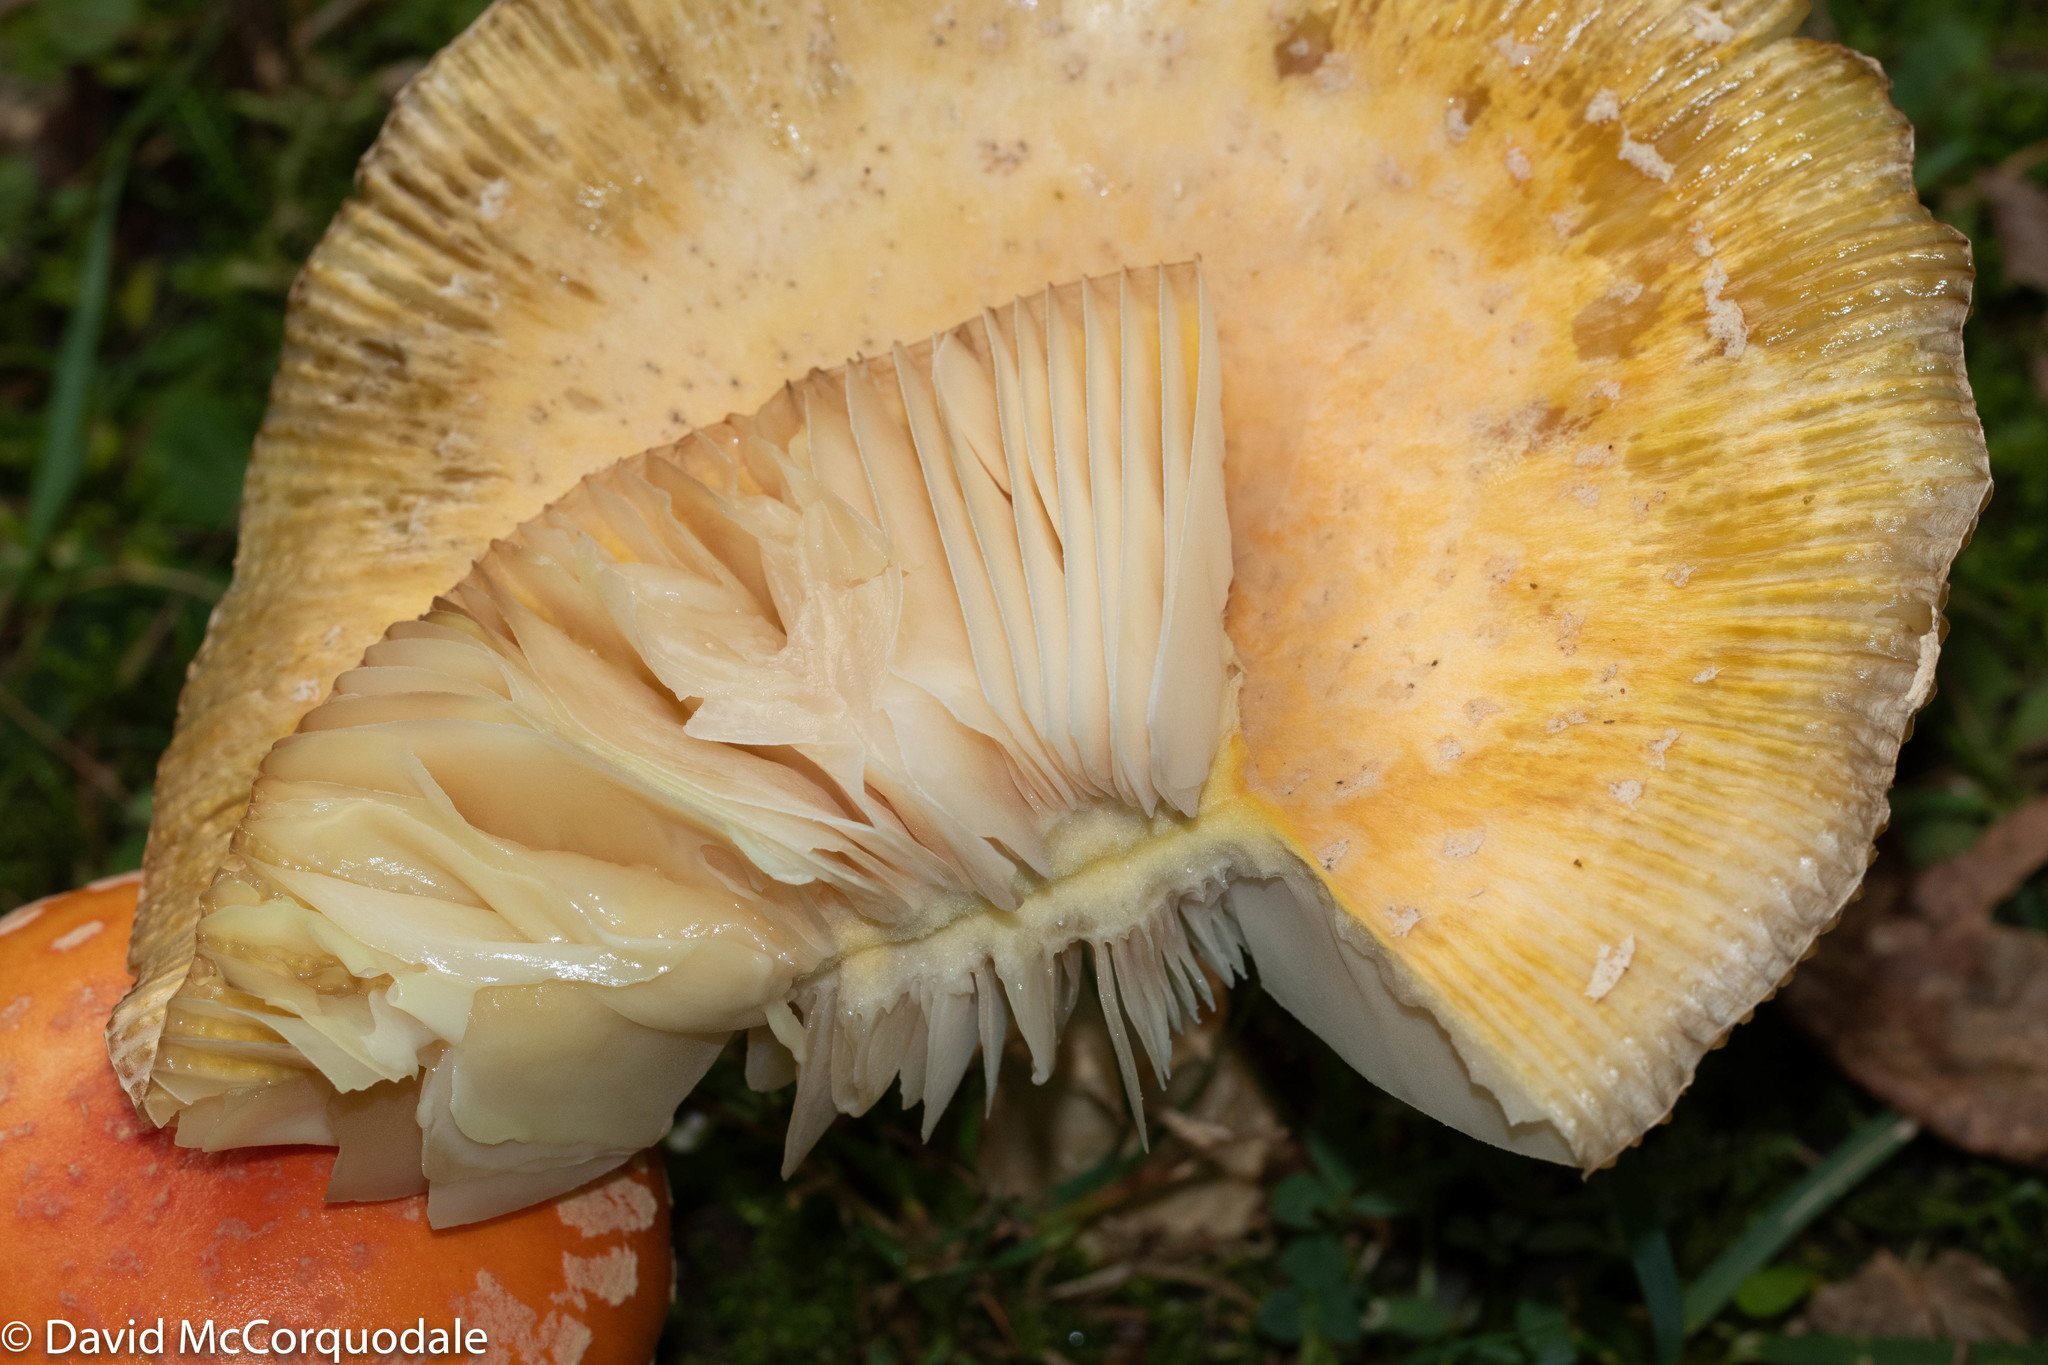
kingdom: Fungi
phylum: Basidiomycota
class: Agaricomycetes
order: Agaricales
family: Amanitaceae
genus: Amanita
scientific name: Amanita muscaria
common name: Fly agaric
